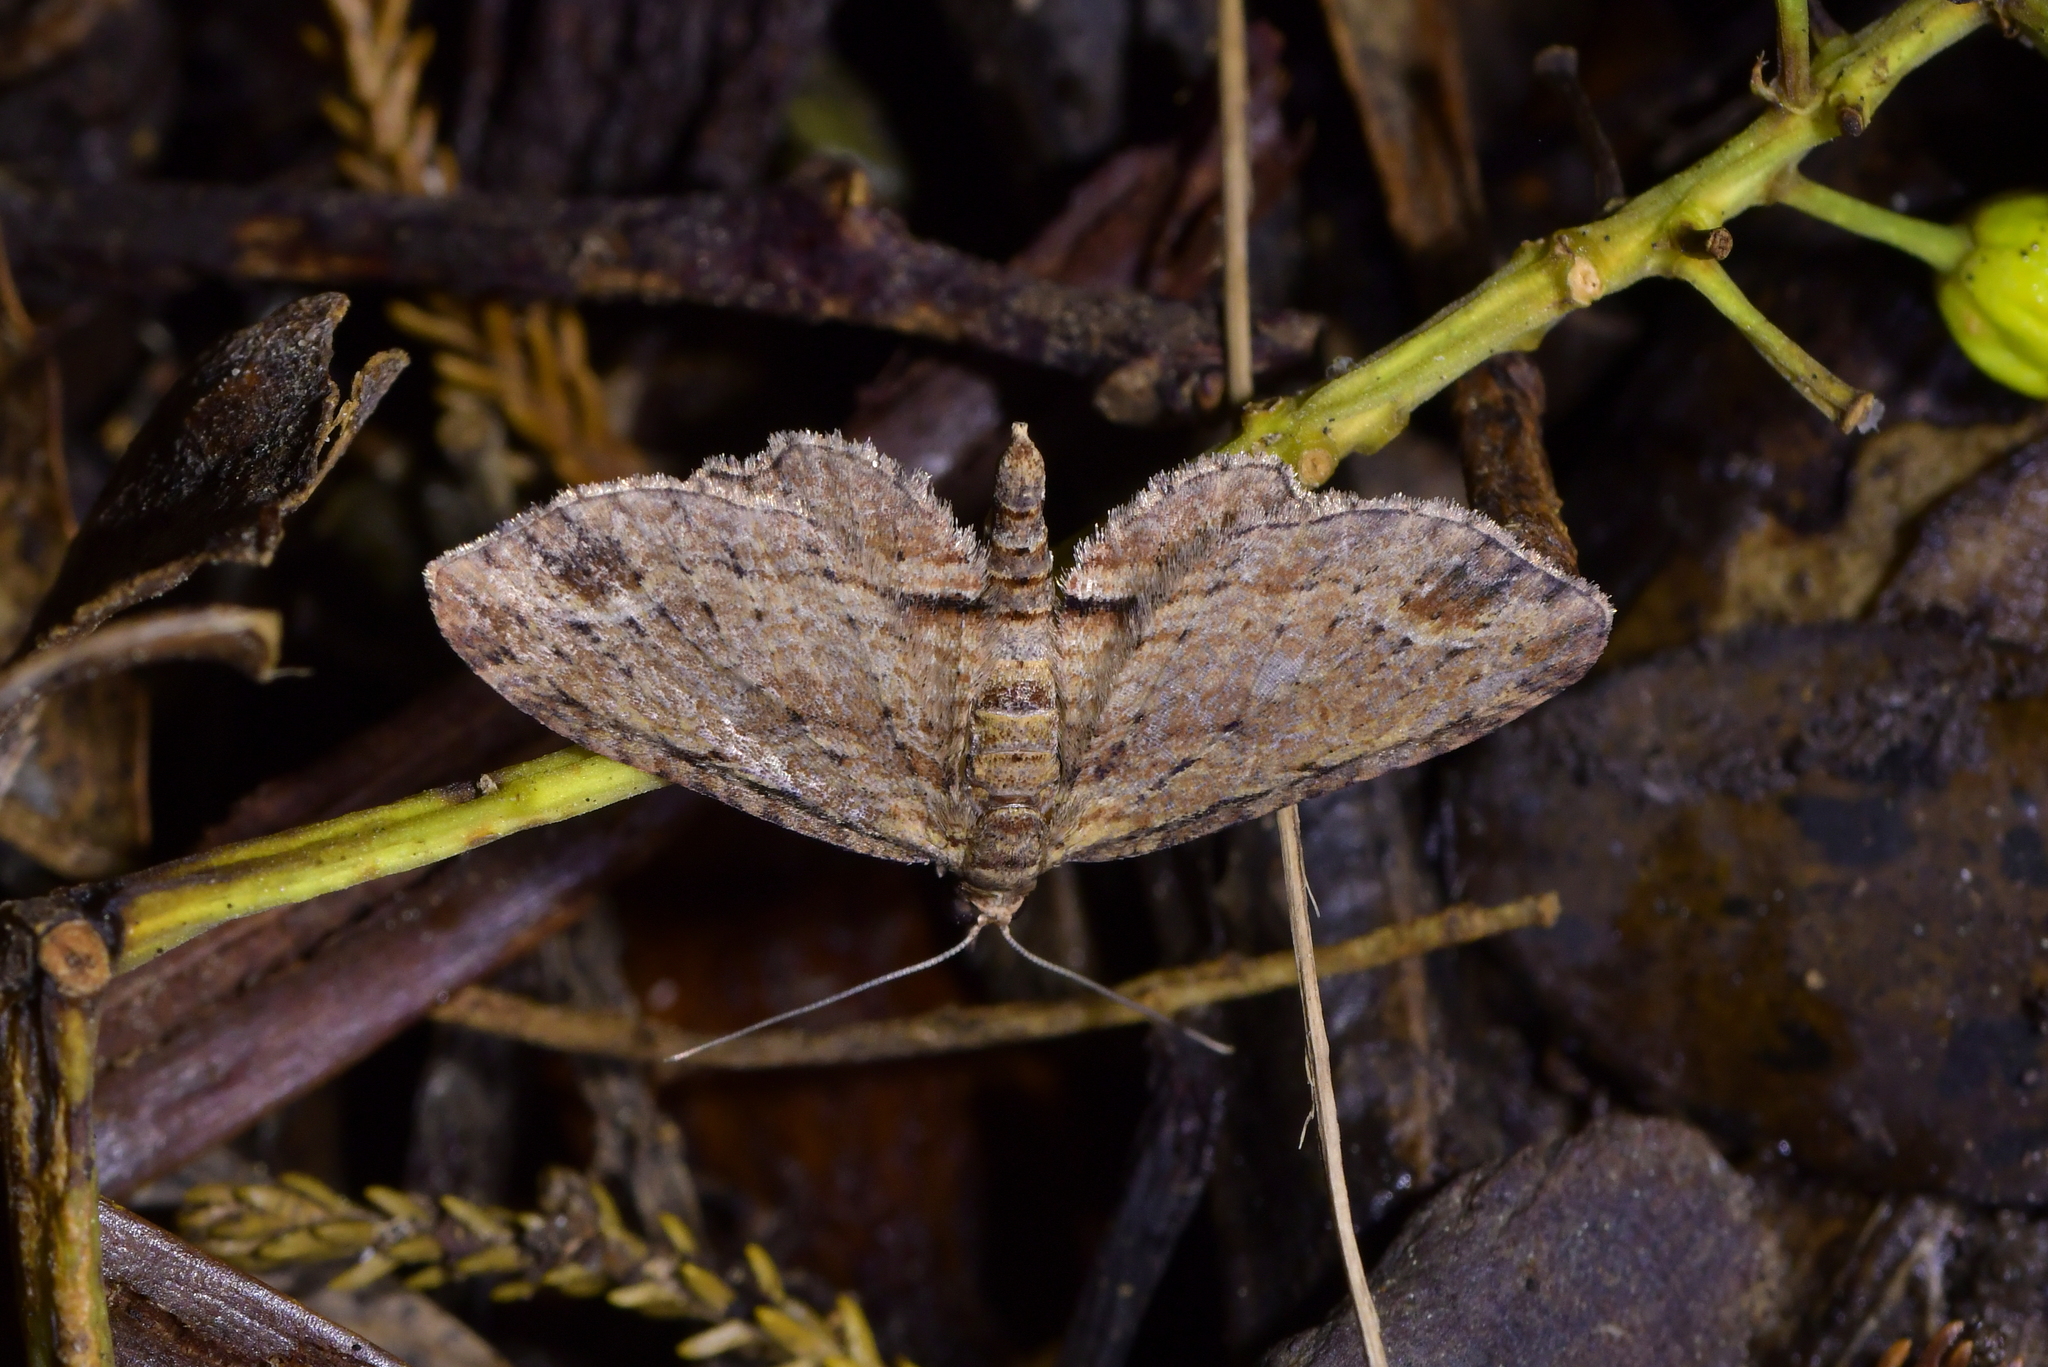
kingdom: Animalia
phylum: Arthropoda
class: Insecta
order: Lepidoptera
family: Geometridae
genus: Chloroclystis
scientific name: Chloroclystis filata
